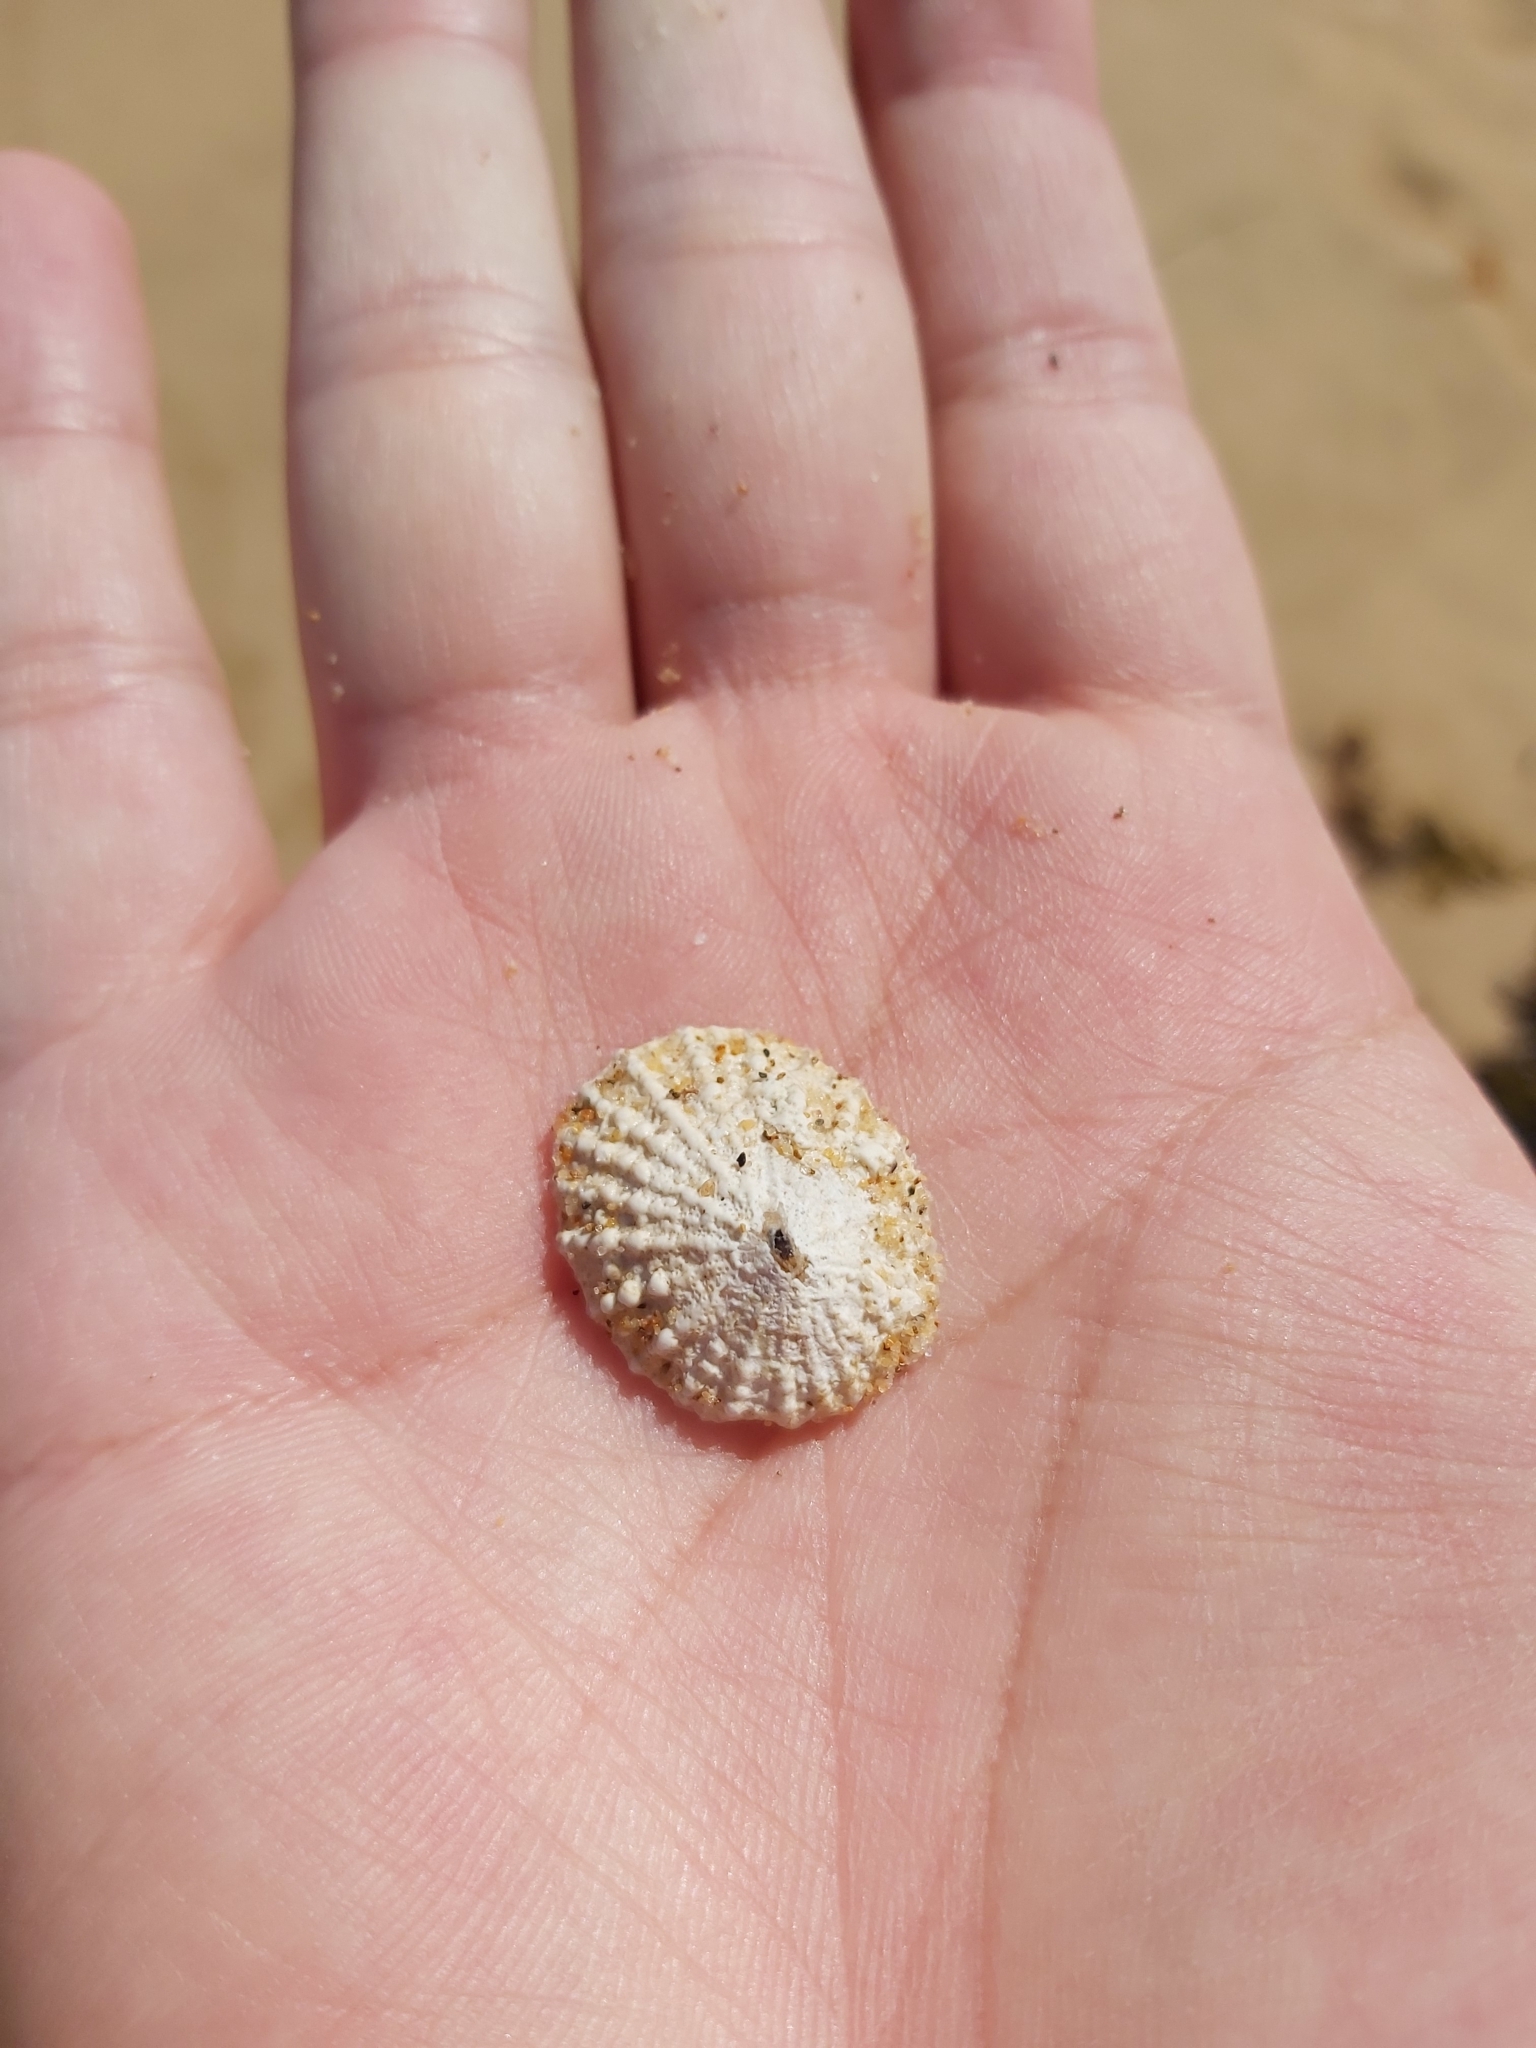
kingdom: Animalia
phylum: Mollusca
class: Gastropoda
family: Patellidae
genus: Scutellastra
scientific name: Scutellastra peronii
